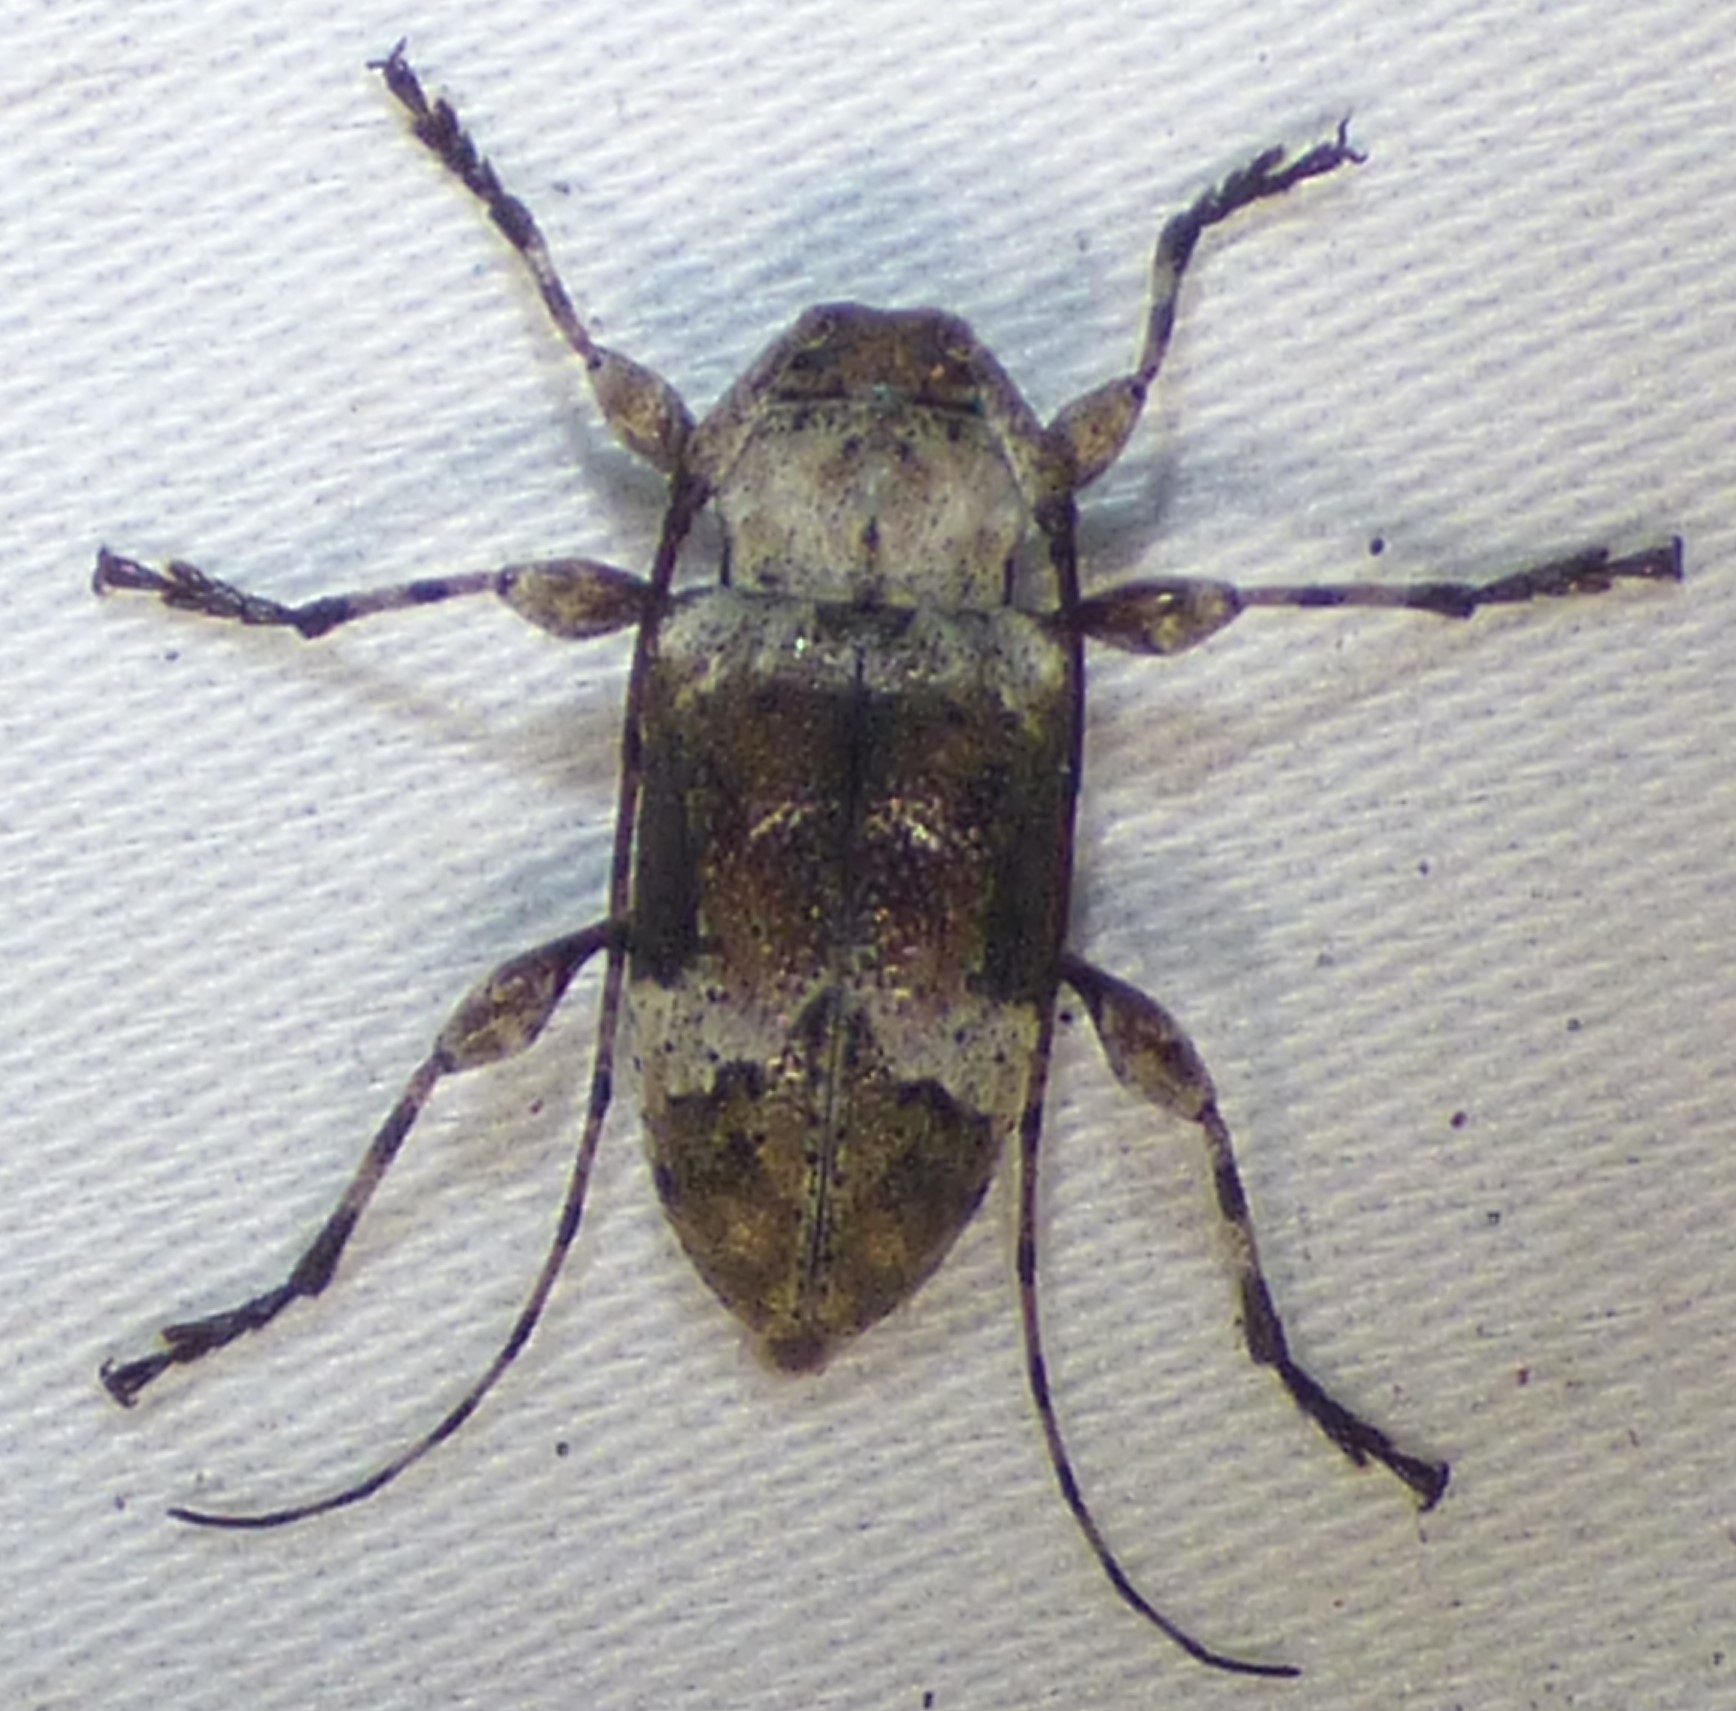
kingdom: Animalia
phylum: Arthropoda
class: Insecta
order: Coleoptera
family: Cerambycidae
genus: Leptostylopsis
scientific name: Leptostylopsis planidorsus
